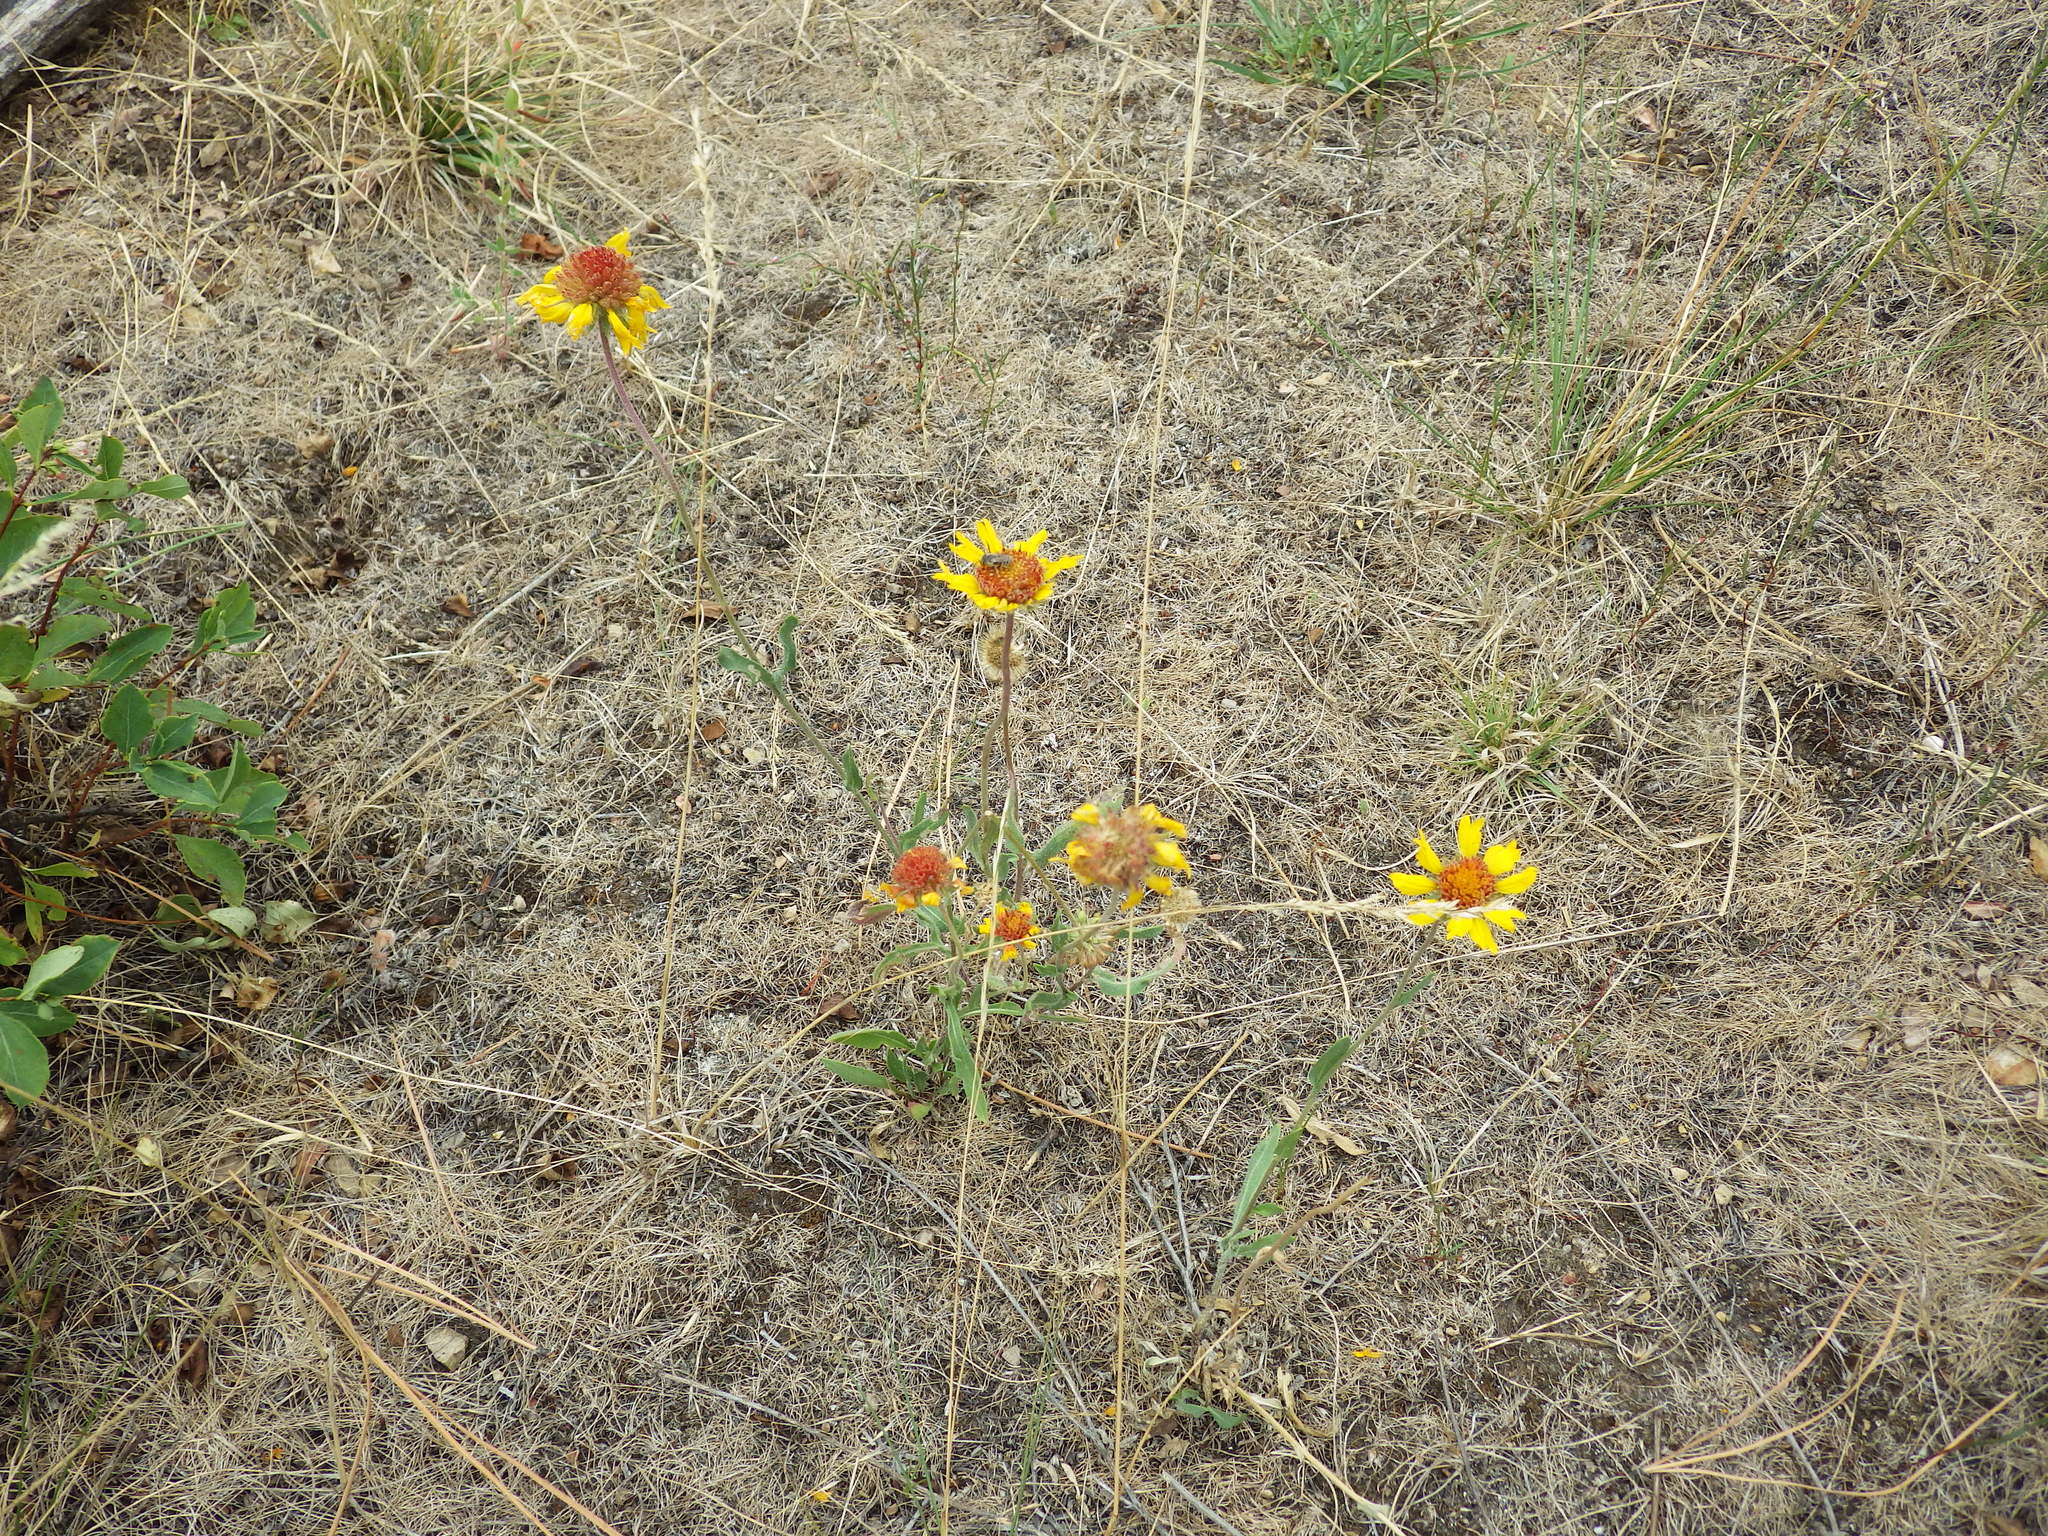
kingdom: Plantae
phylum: Tracheophyta
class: Magnoliopsida
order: Asterales
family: Asteraceae
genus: Gaillardia
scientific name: Gaillardia aristata
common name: Blanket-flower
